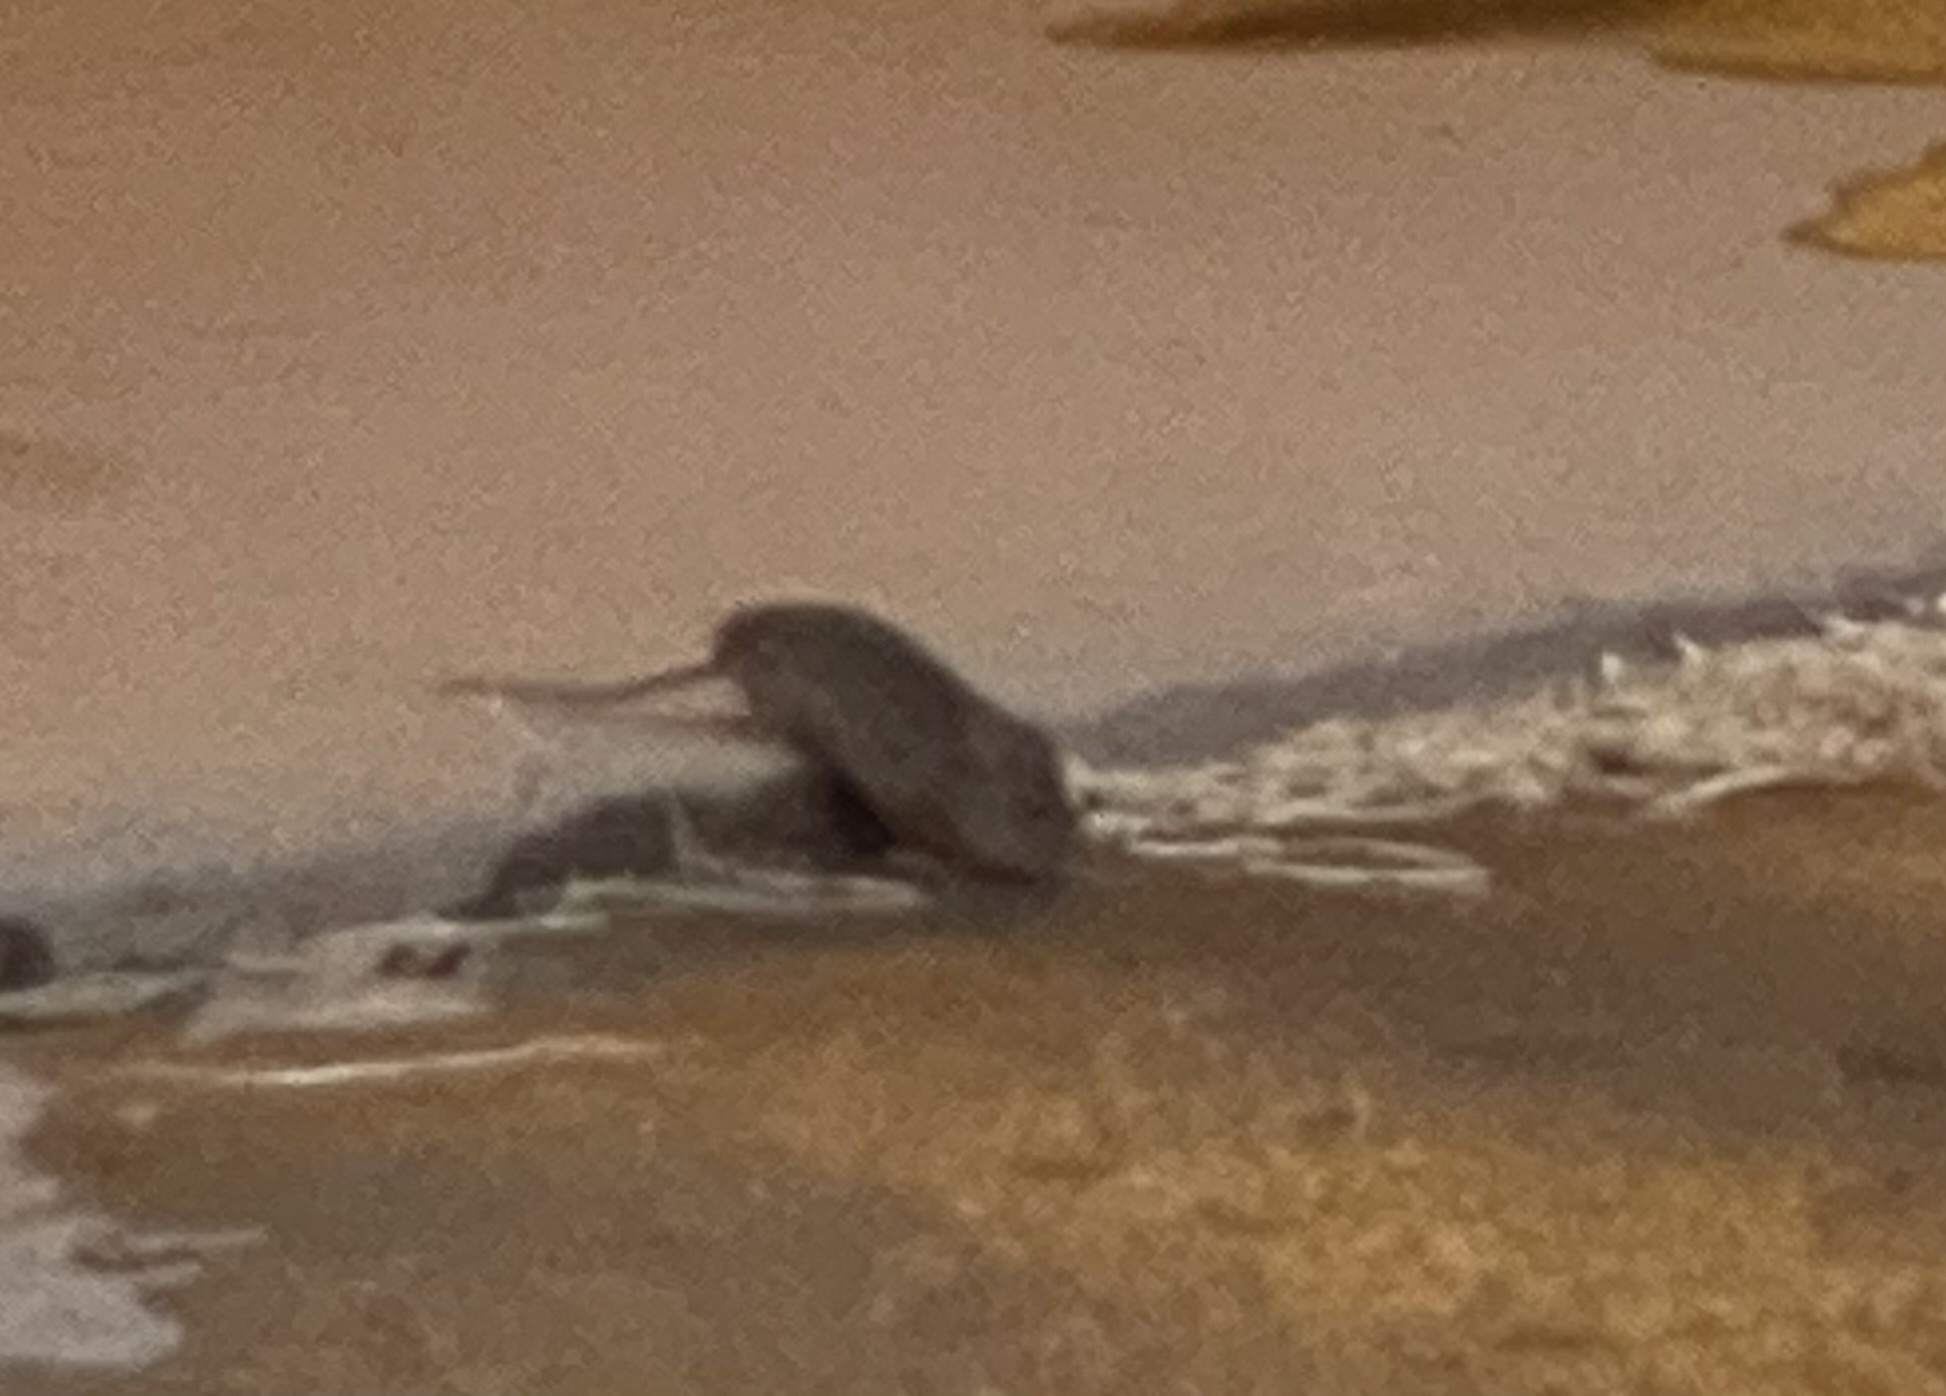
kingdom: Animalia
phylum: Chordata
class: Mammalia
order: Rodentia
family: Muridae
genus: Rattus
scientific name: Rattus rattus
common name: Black rat
